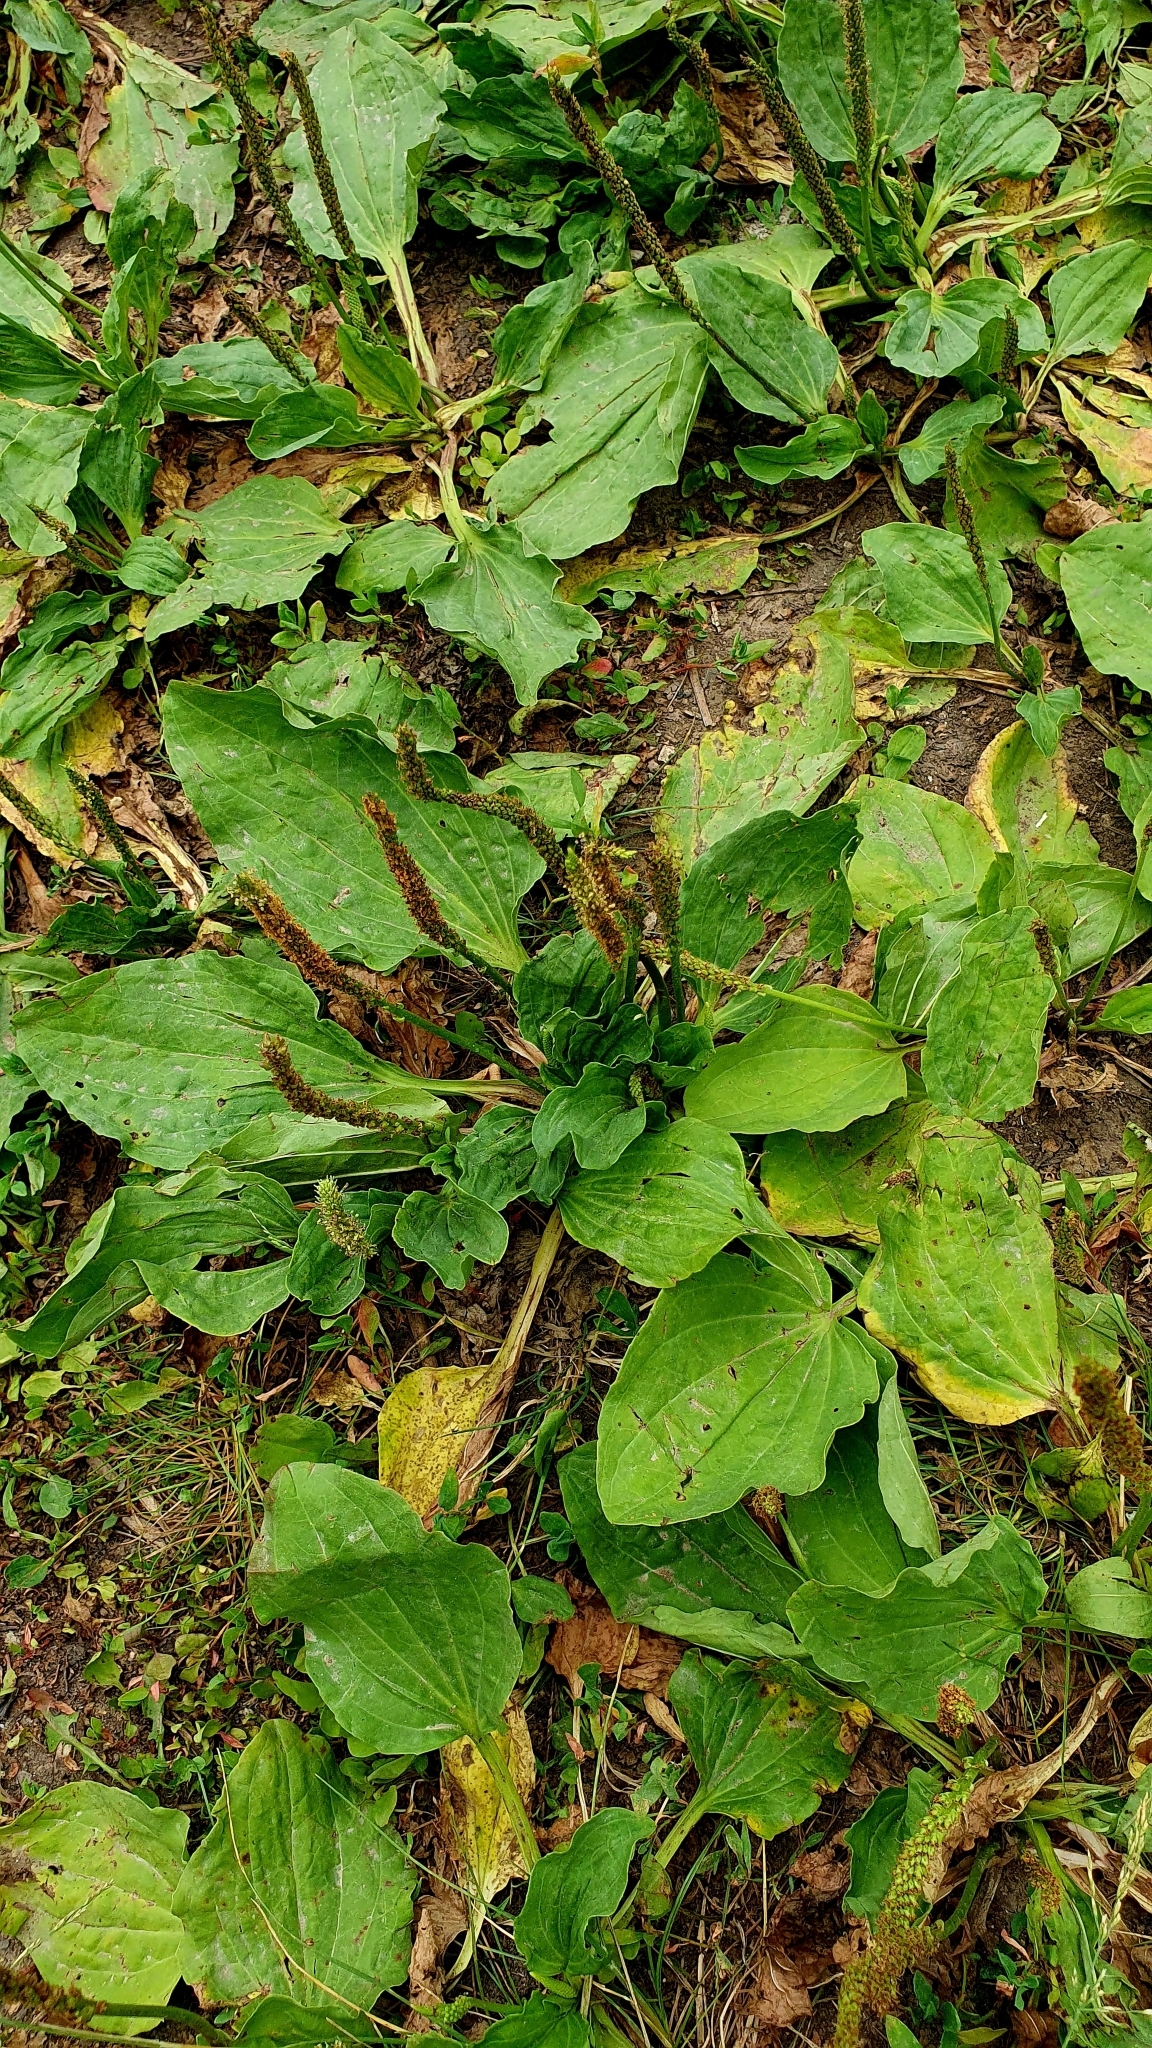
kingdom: Plantae
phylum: Tracheophyta
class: Magnoliopsida
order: Lamiales
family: Plantaginaceae
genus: Plantago
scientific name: Plantago major
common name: Common plantain
